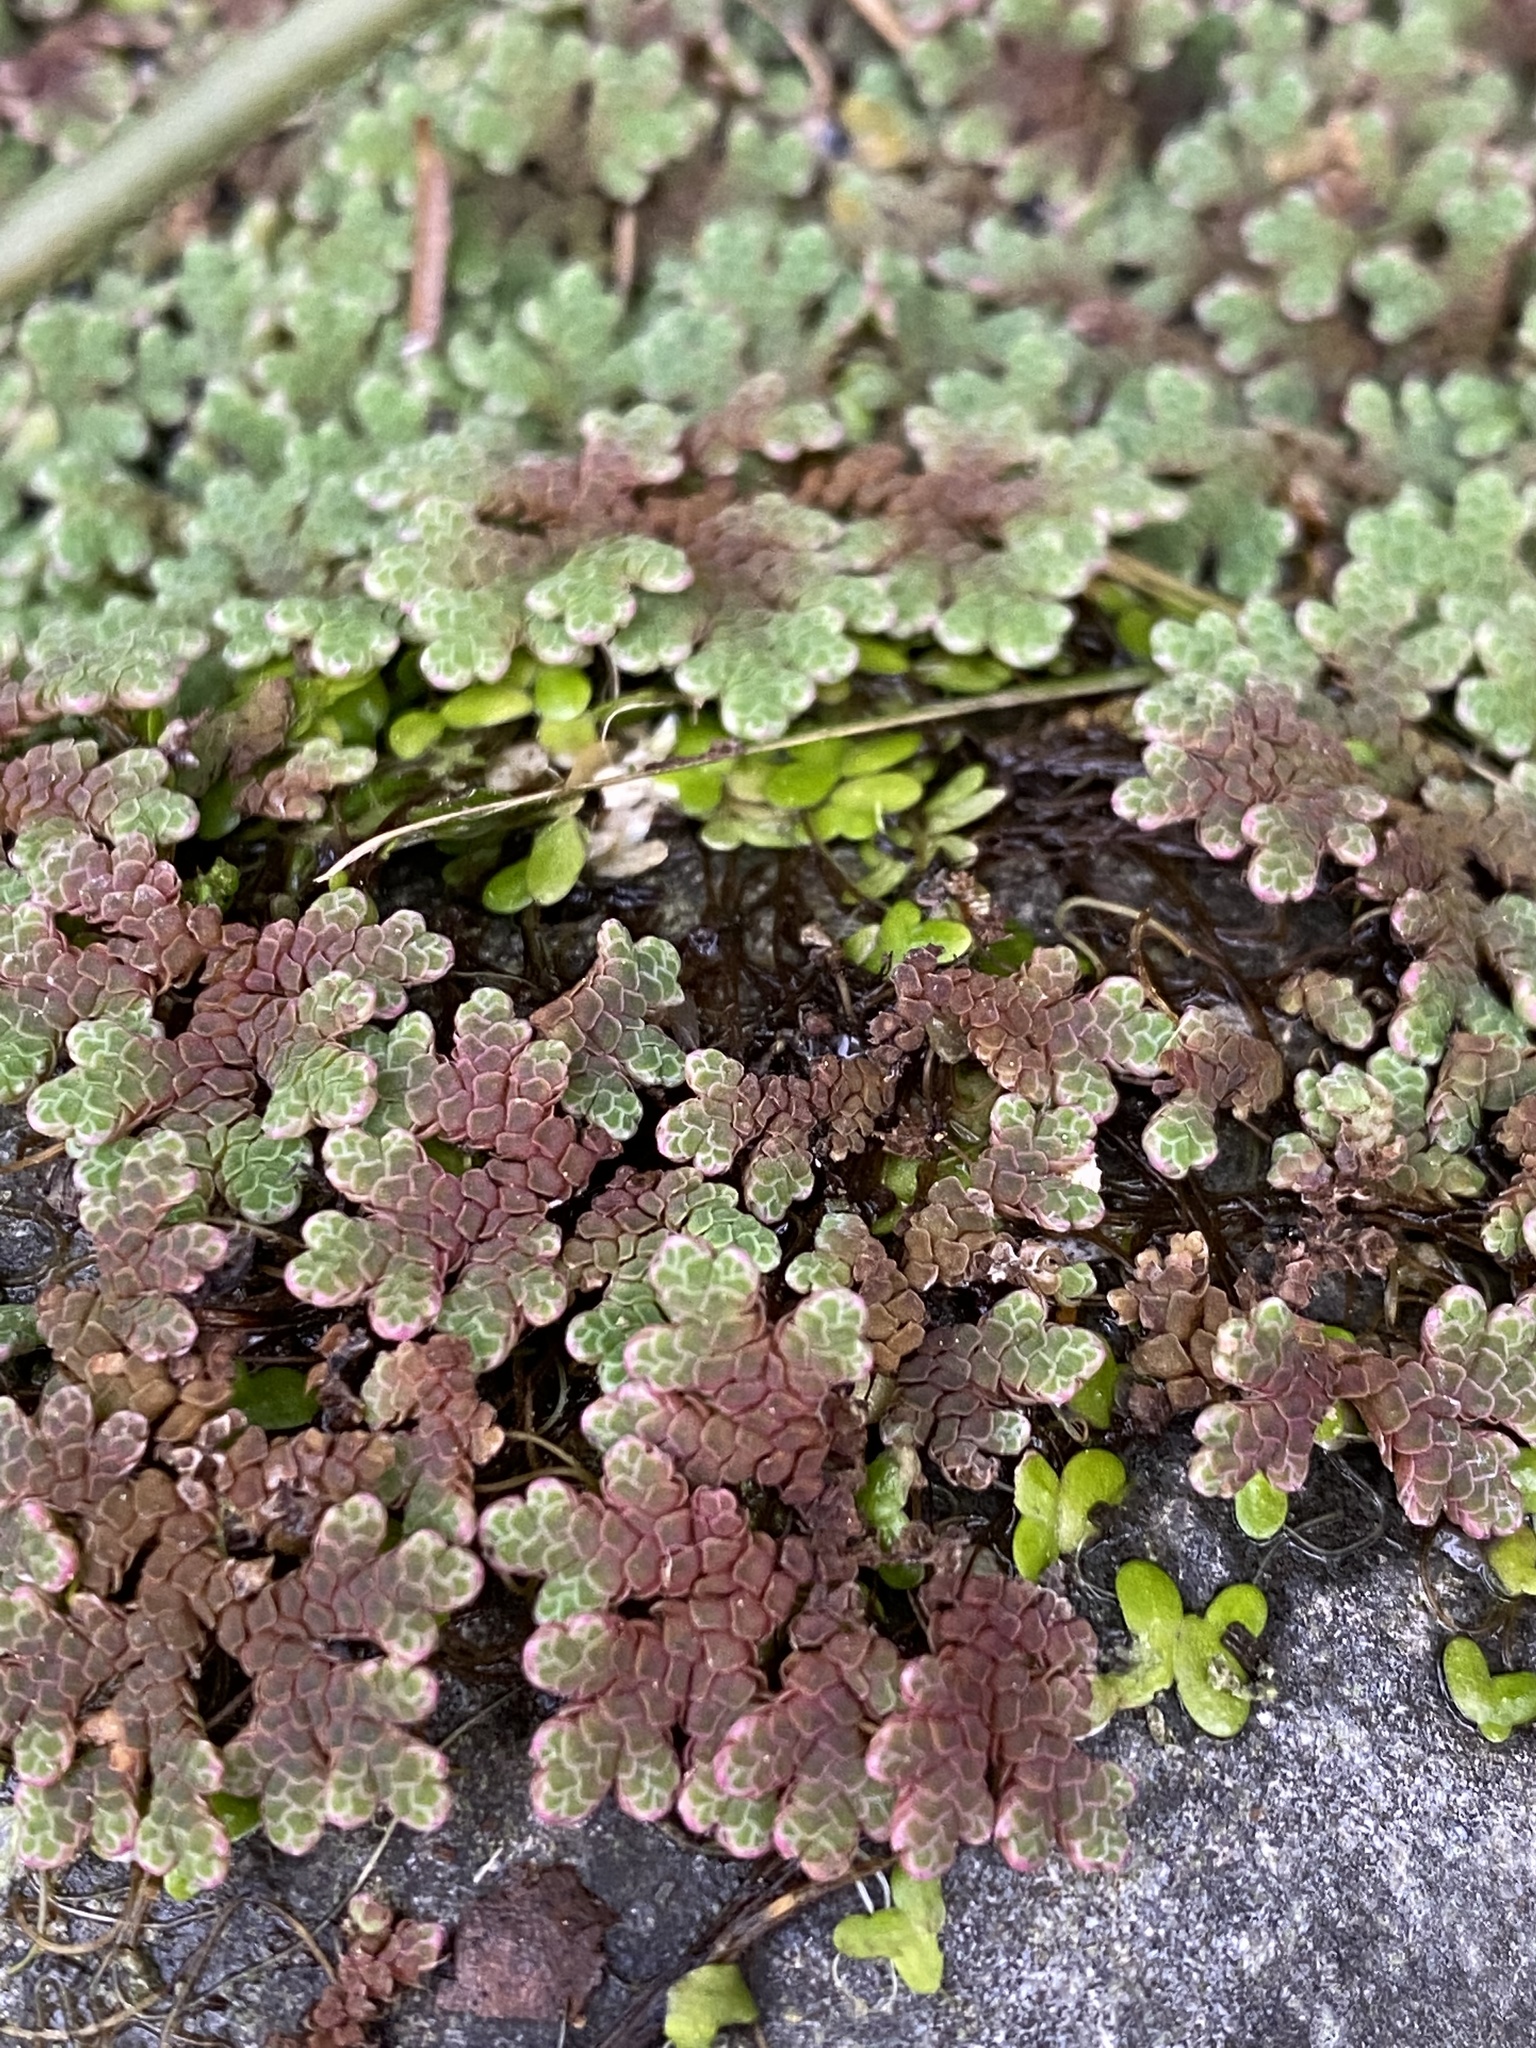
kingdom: Plantae
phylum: Tracheophyta
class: Polypodiopsida
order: Salviniales
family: Salviniaceae
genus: Azolla
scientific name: Azolla rubra
